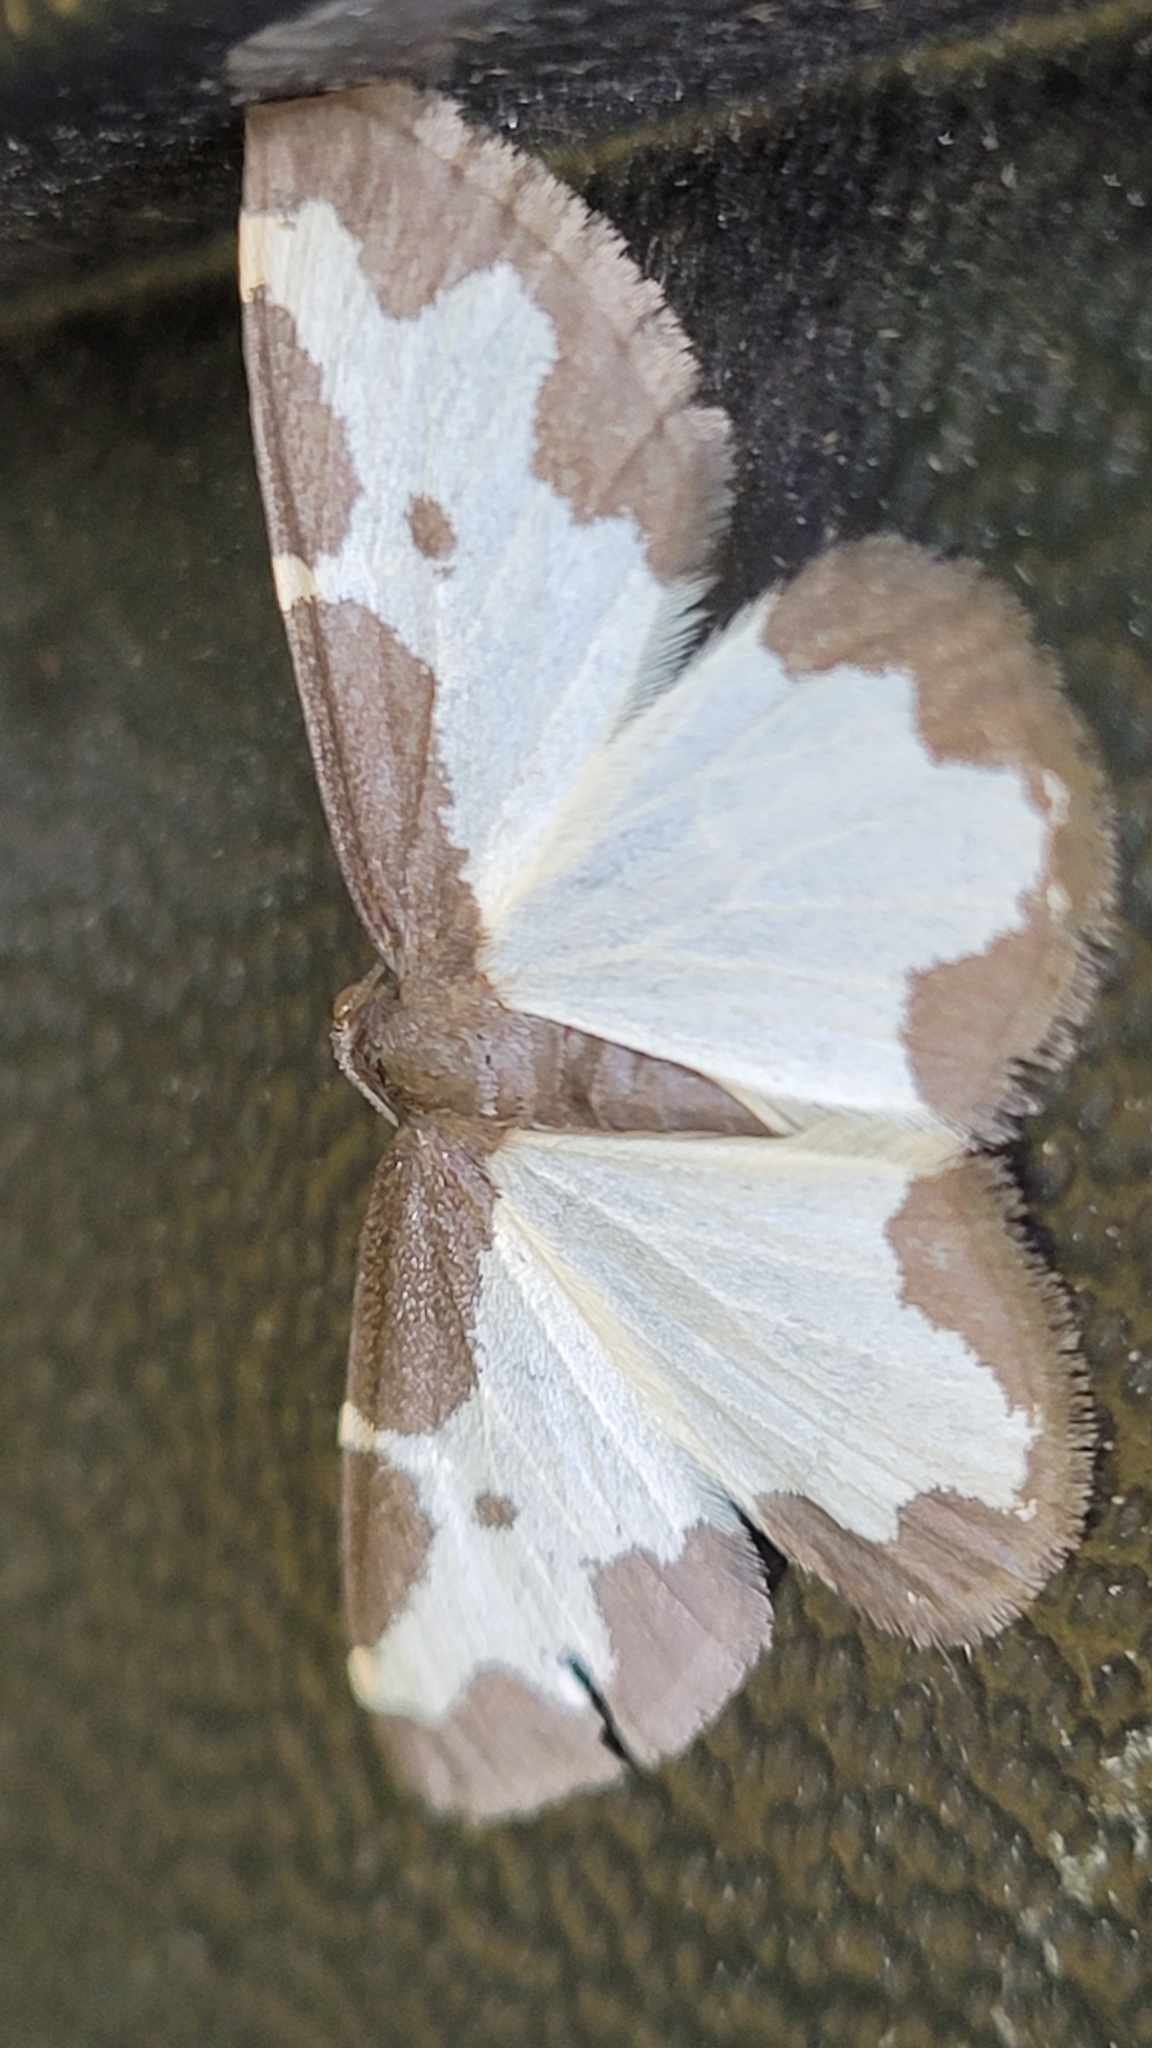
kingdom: Animalia
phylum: Arthropoda
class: Insecta
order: Lepidoptera
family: Geometridae
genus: Lomaspilis
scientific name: Lomaspilis marginata
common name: Clouded border
